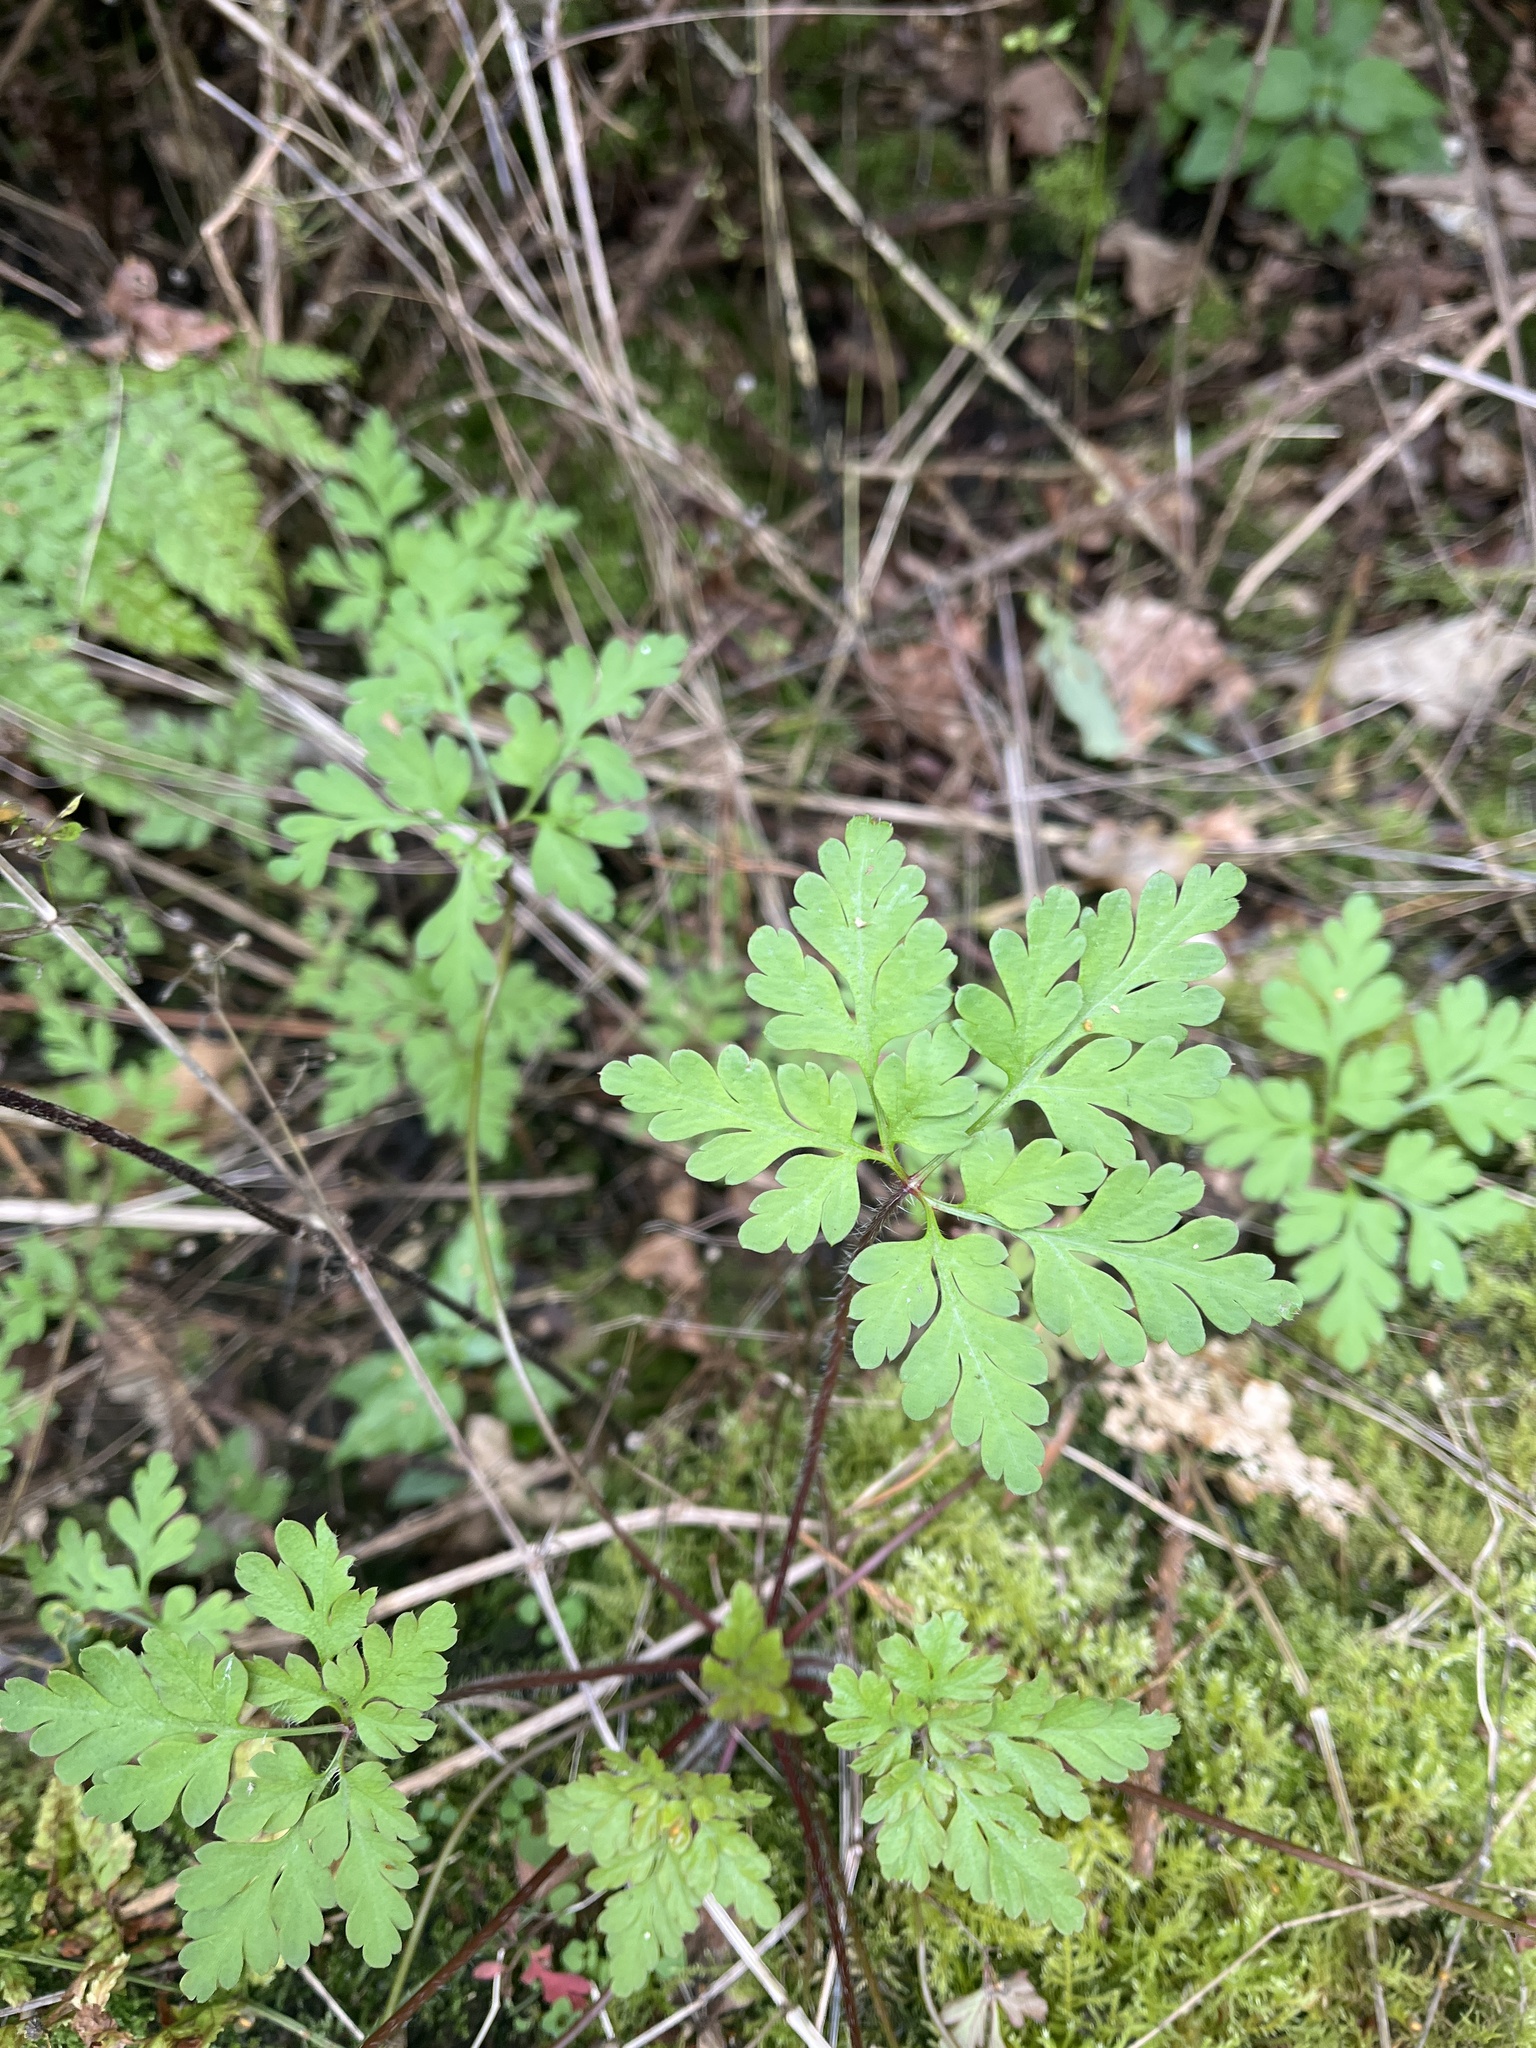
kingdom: Plantae
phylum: Tracheophyta
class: Magnoliopsida
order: Geraniales
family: Geraniaceae
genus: Geranium
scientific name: Geranium robertianum
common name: Herb-robert
